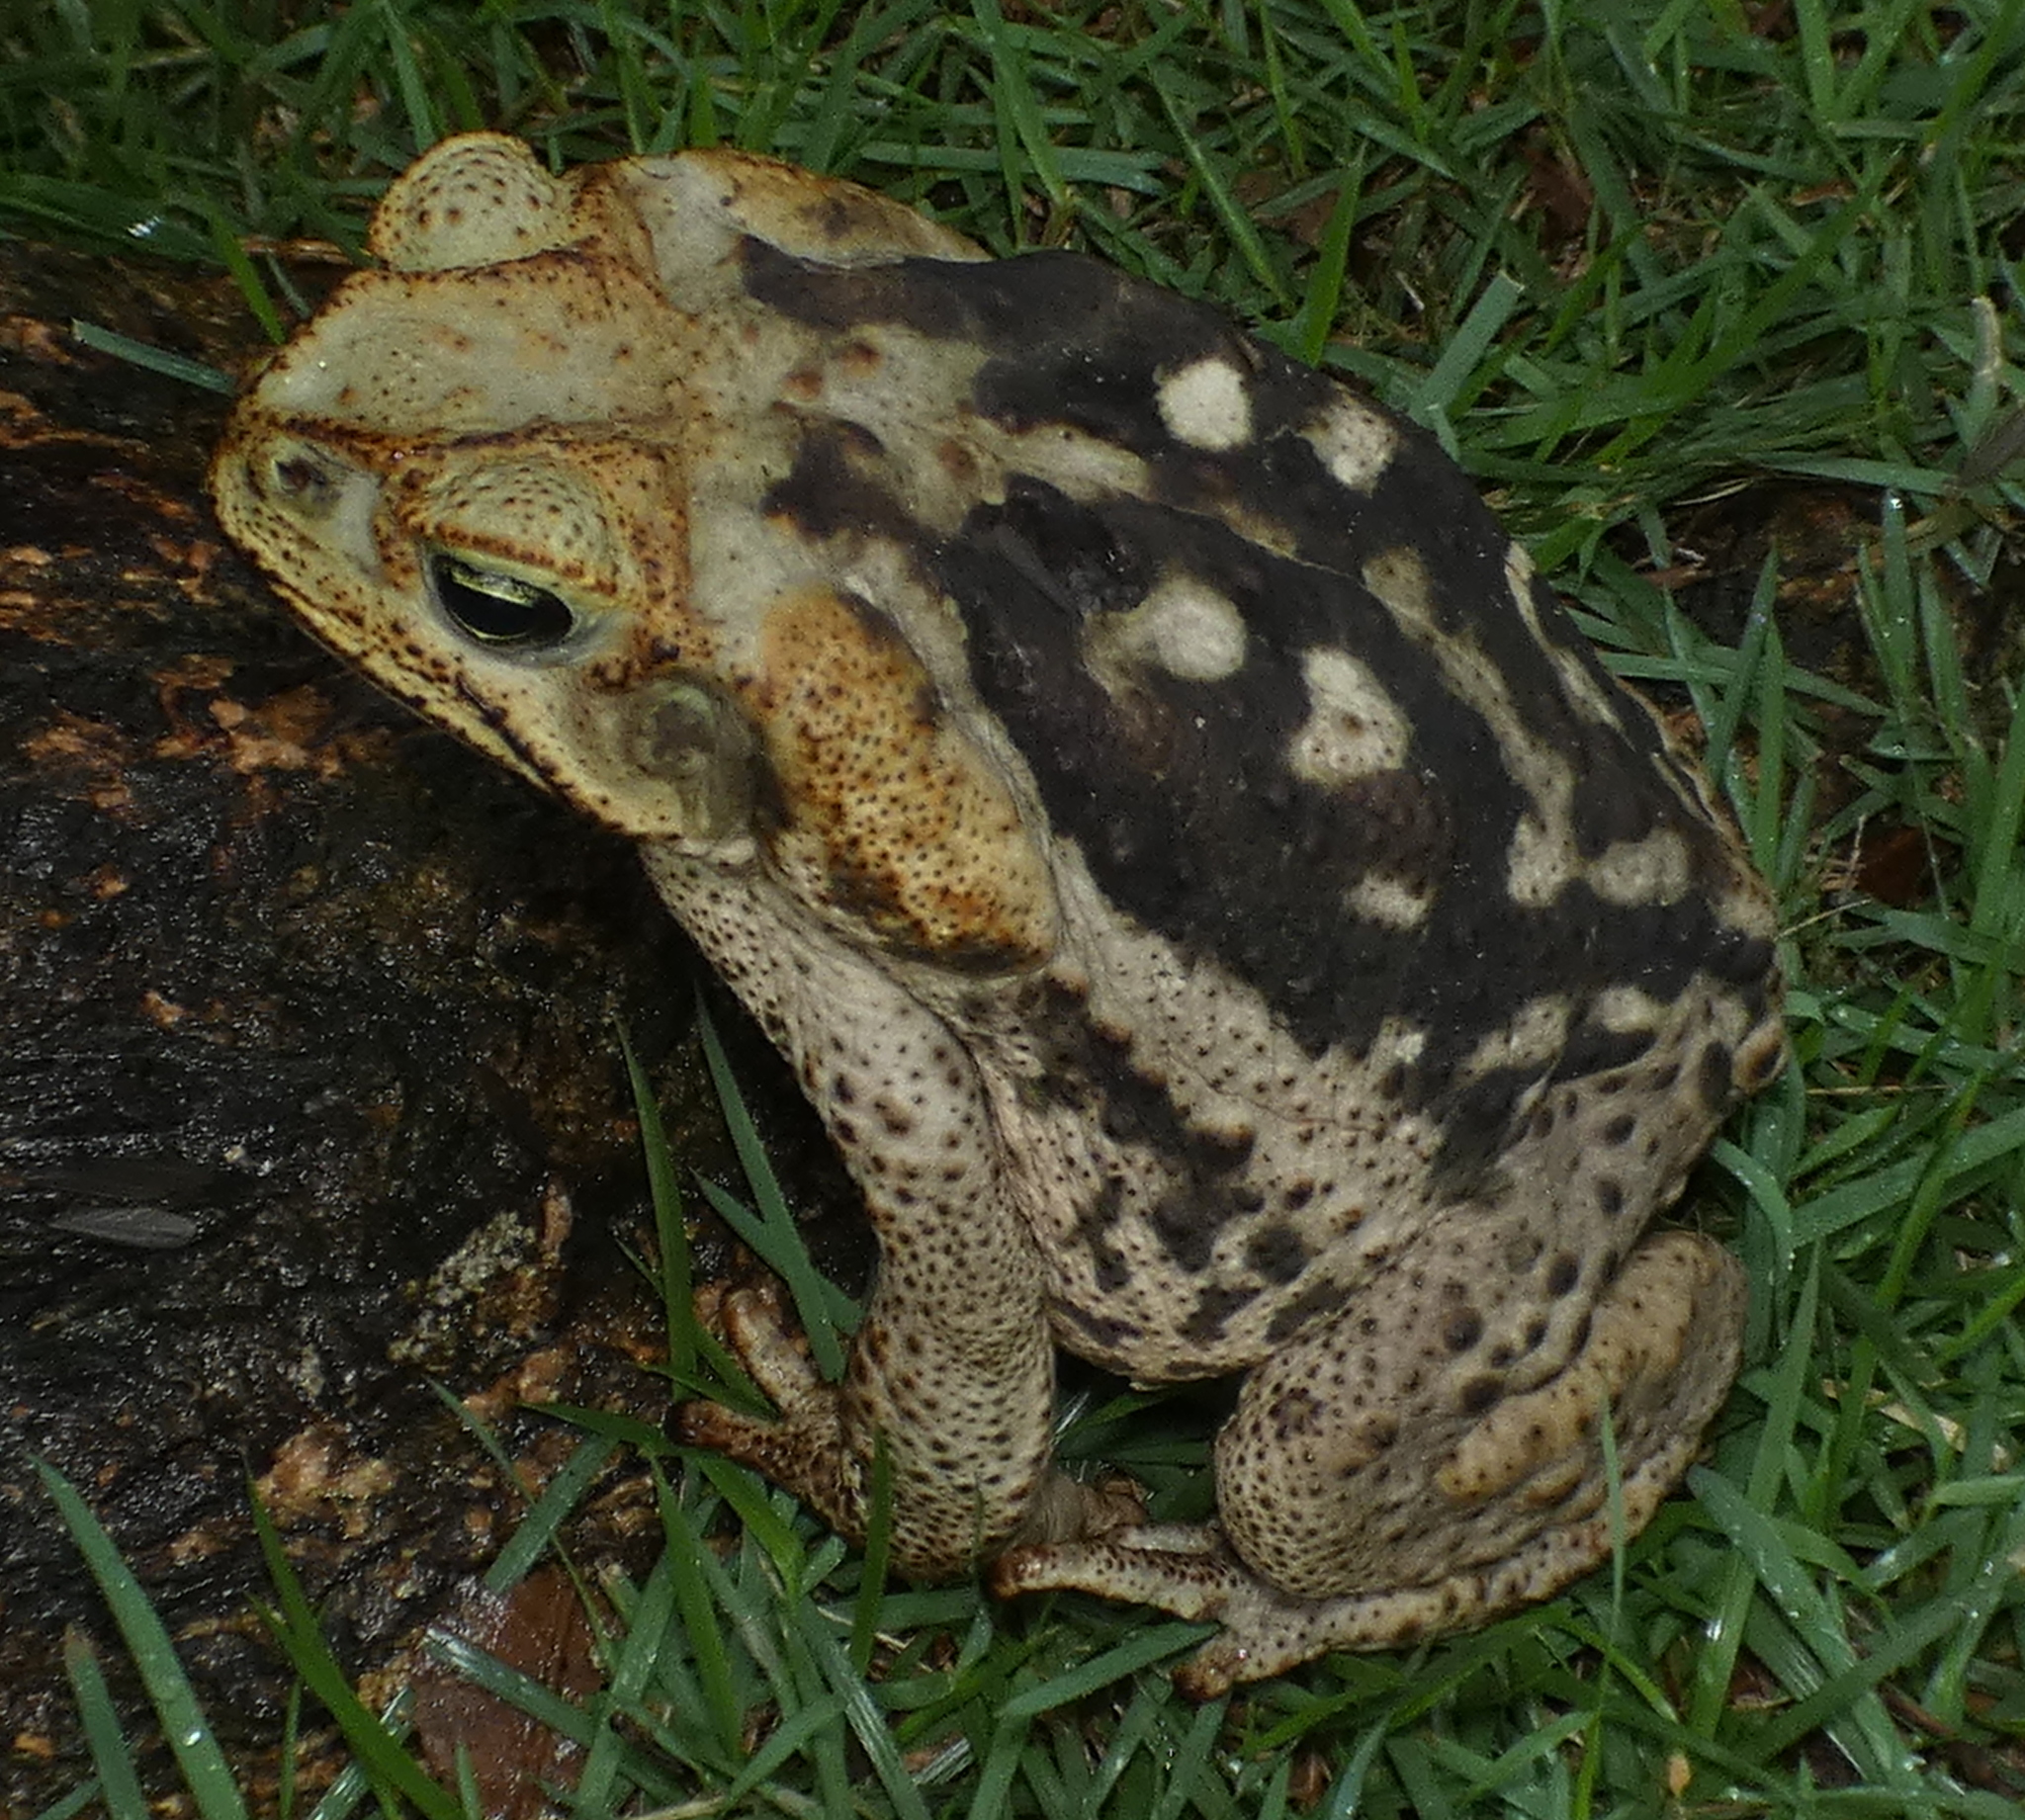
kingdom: Animalia
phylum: Chordata
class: Amphibia
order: Anura
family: Bufonidae
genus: Rhinella
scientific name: Rhinella diptycha
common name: Cope's toad
